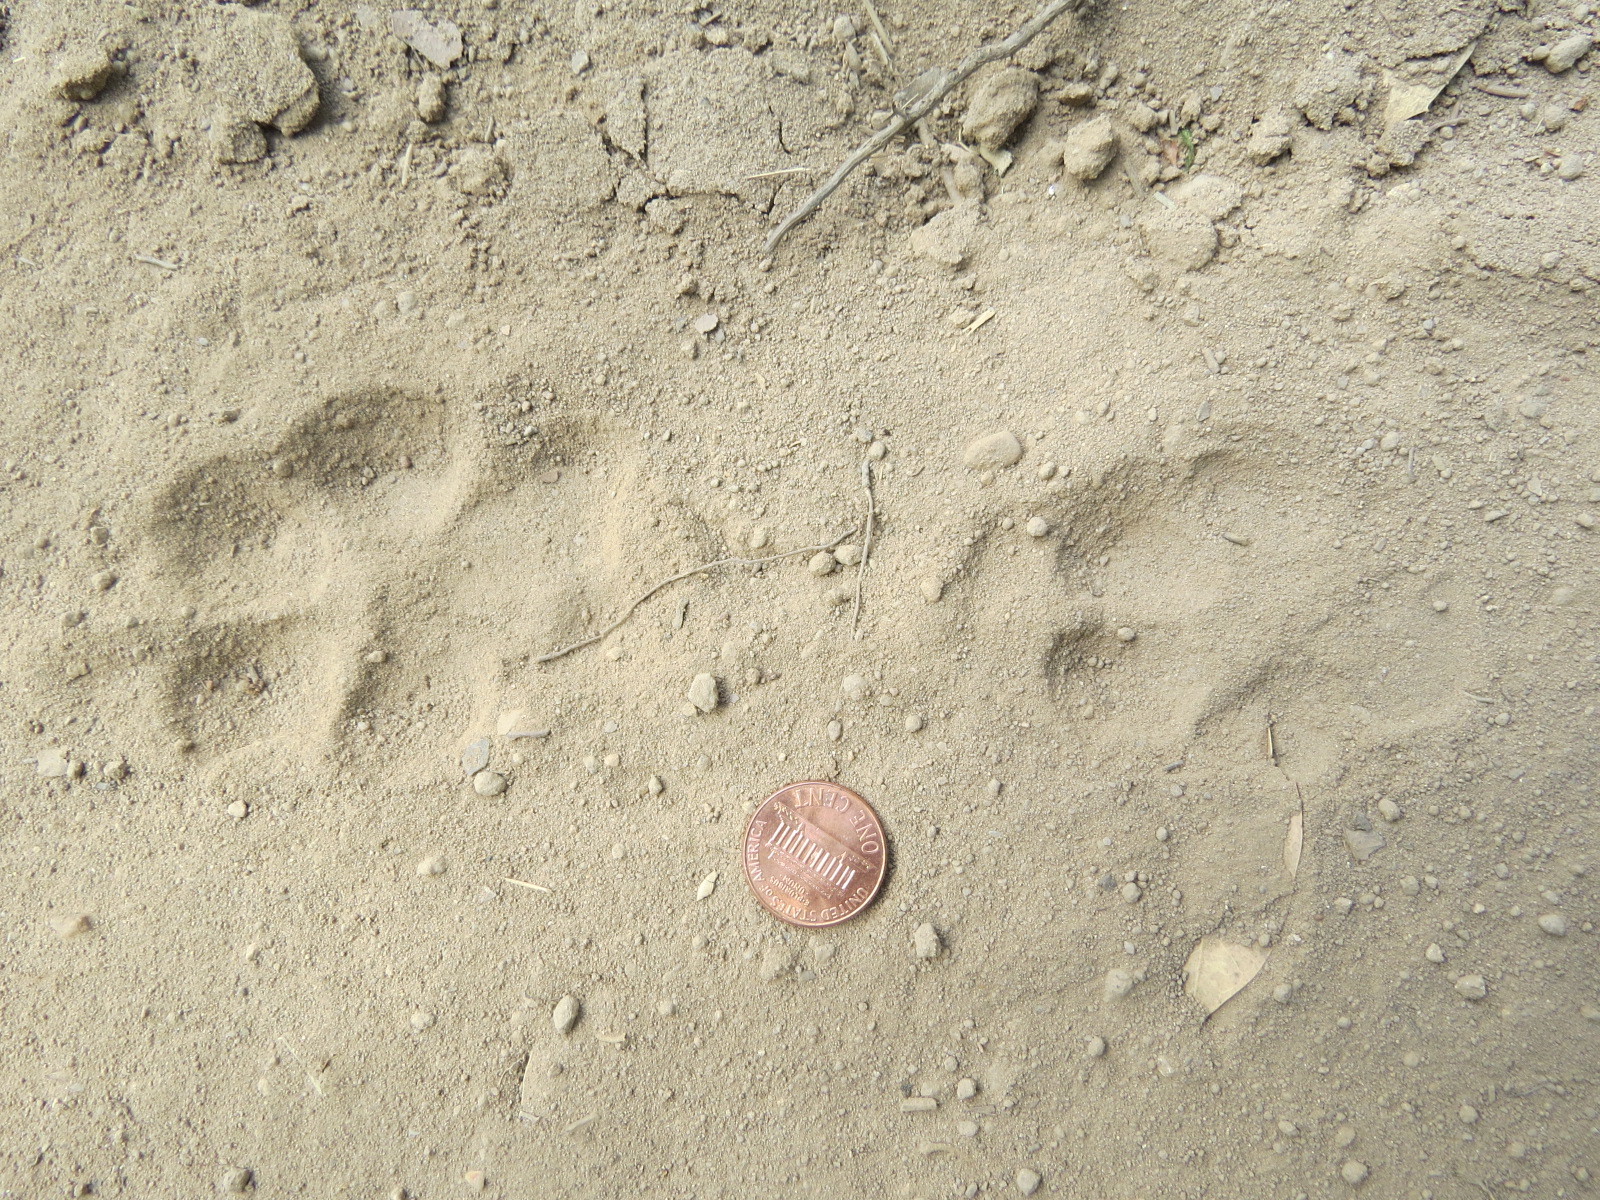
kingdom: Animalia
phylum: Chordata
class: Mammalia
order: Carnivora
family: Canidae
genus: Canis
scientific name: Canis latrans
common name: Coyote
